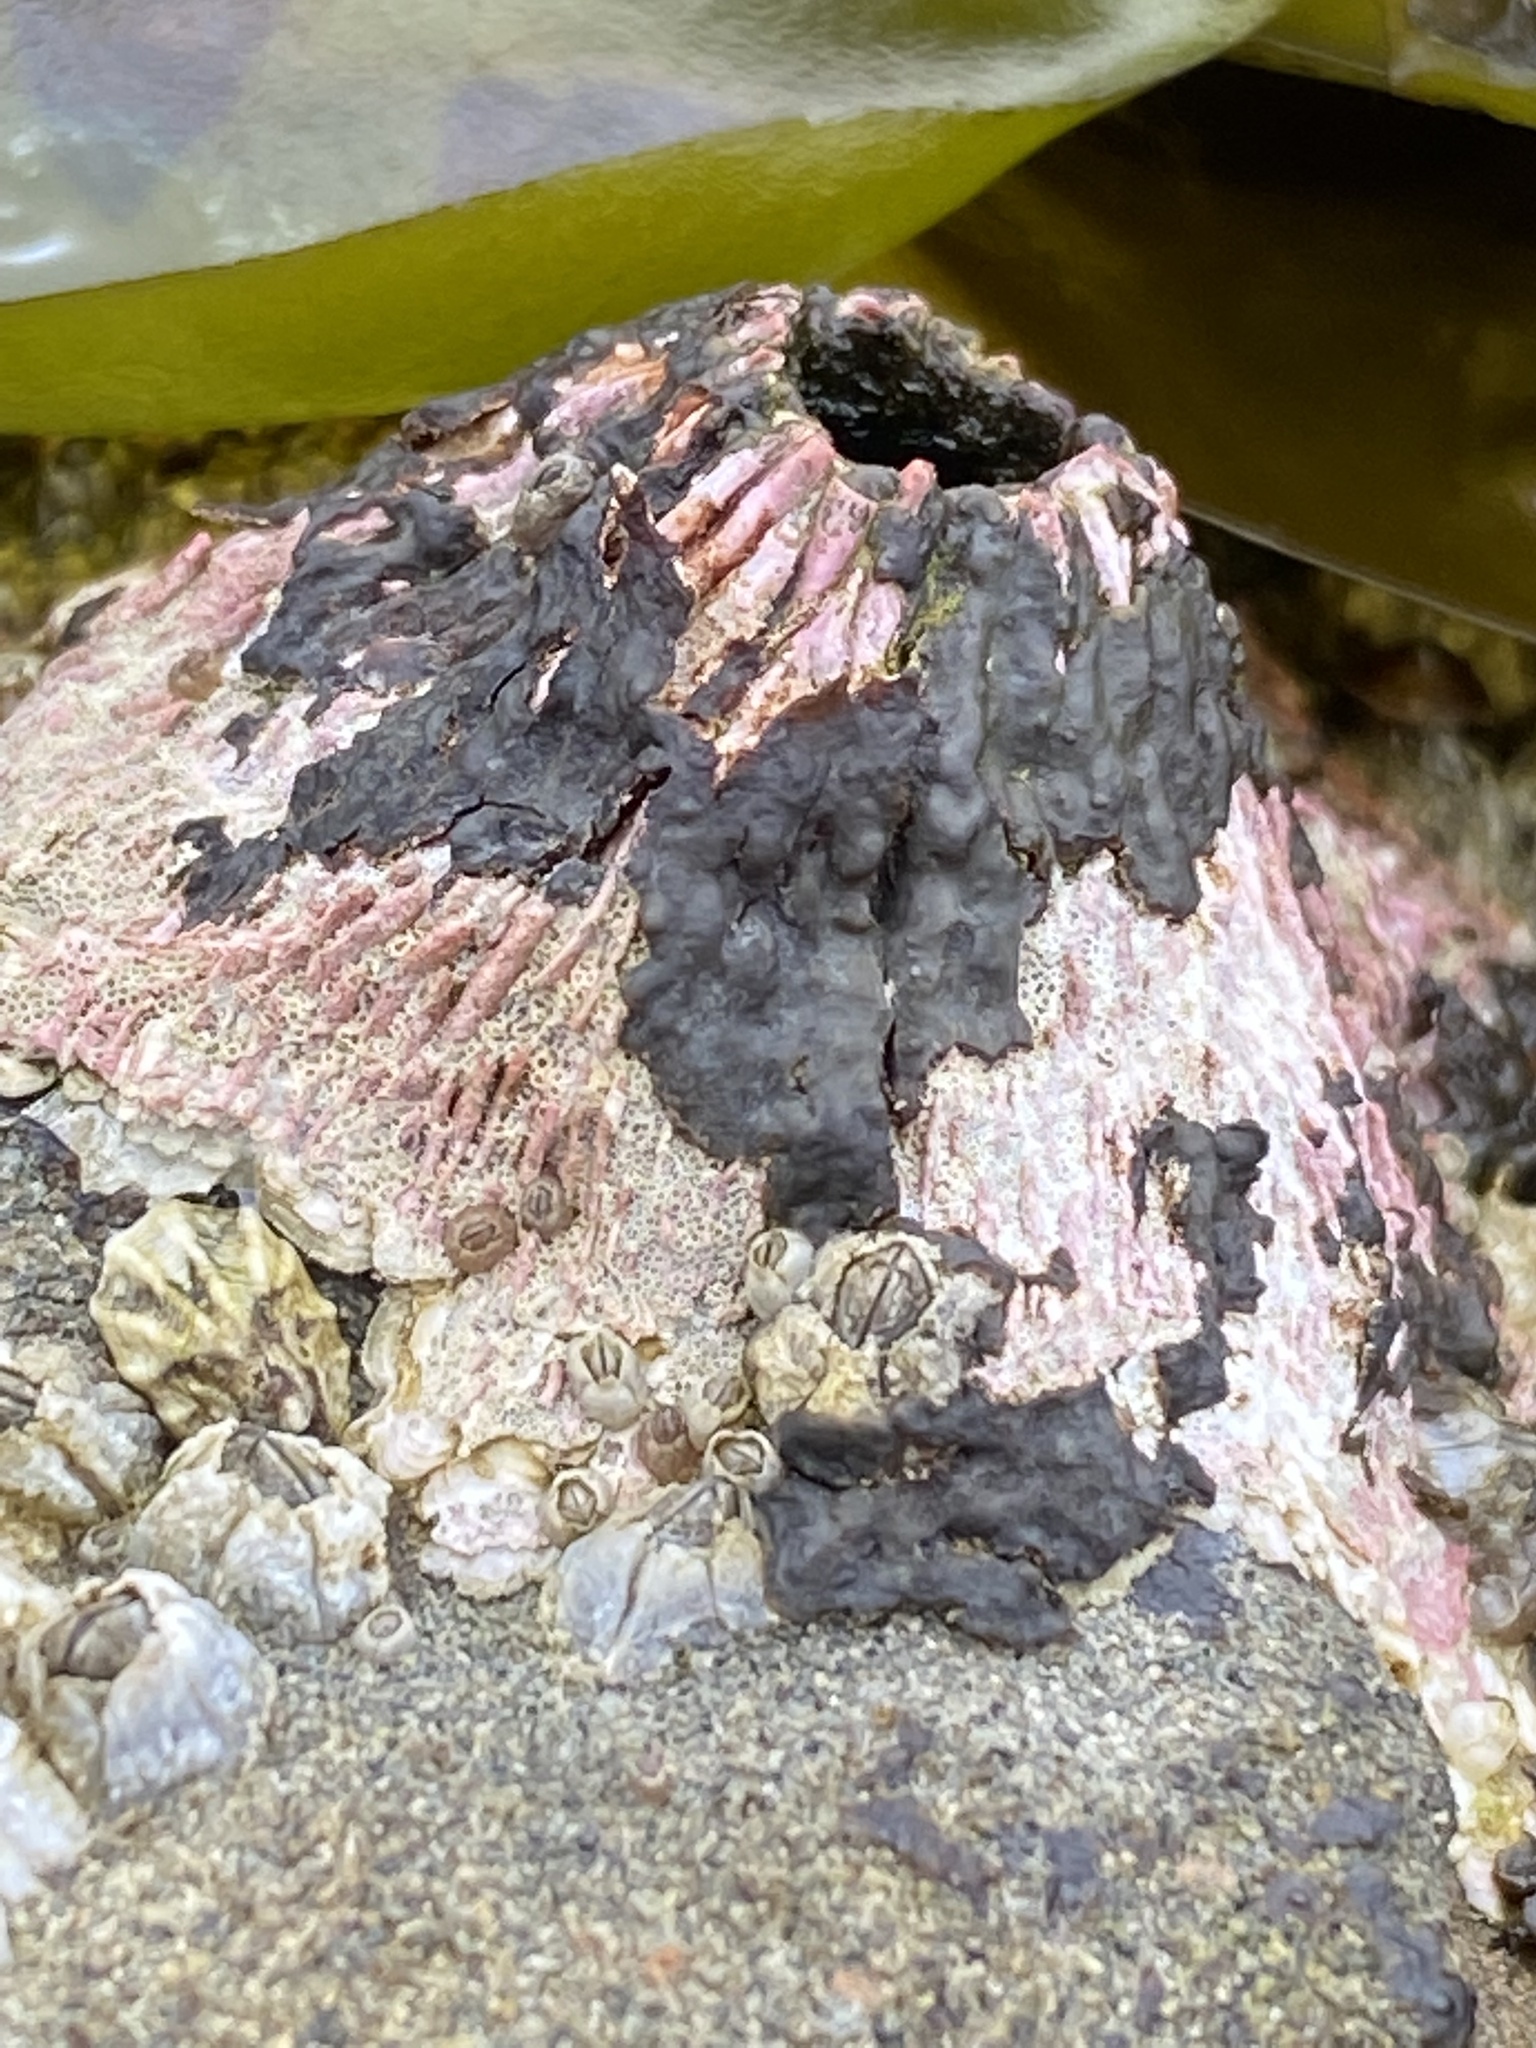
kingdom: Animalia
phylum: Arthropoda
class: Maxillopoda
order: Sessilia
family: Tetraclitidae
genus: Tetraclita
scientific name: Tetraclita rubescens
